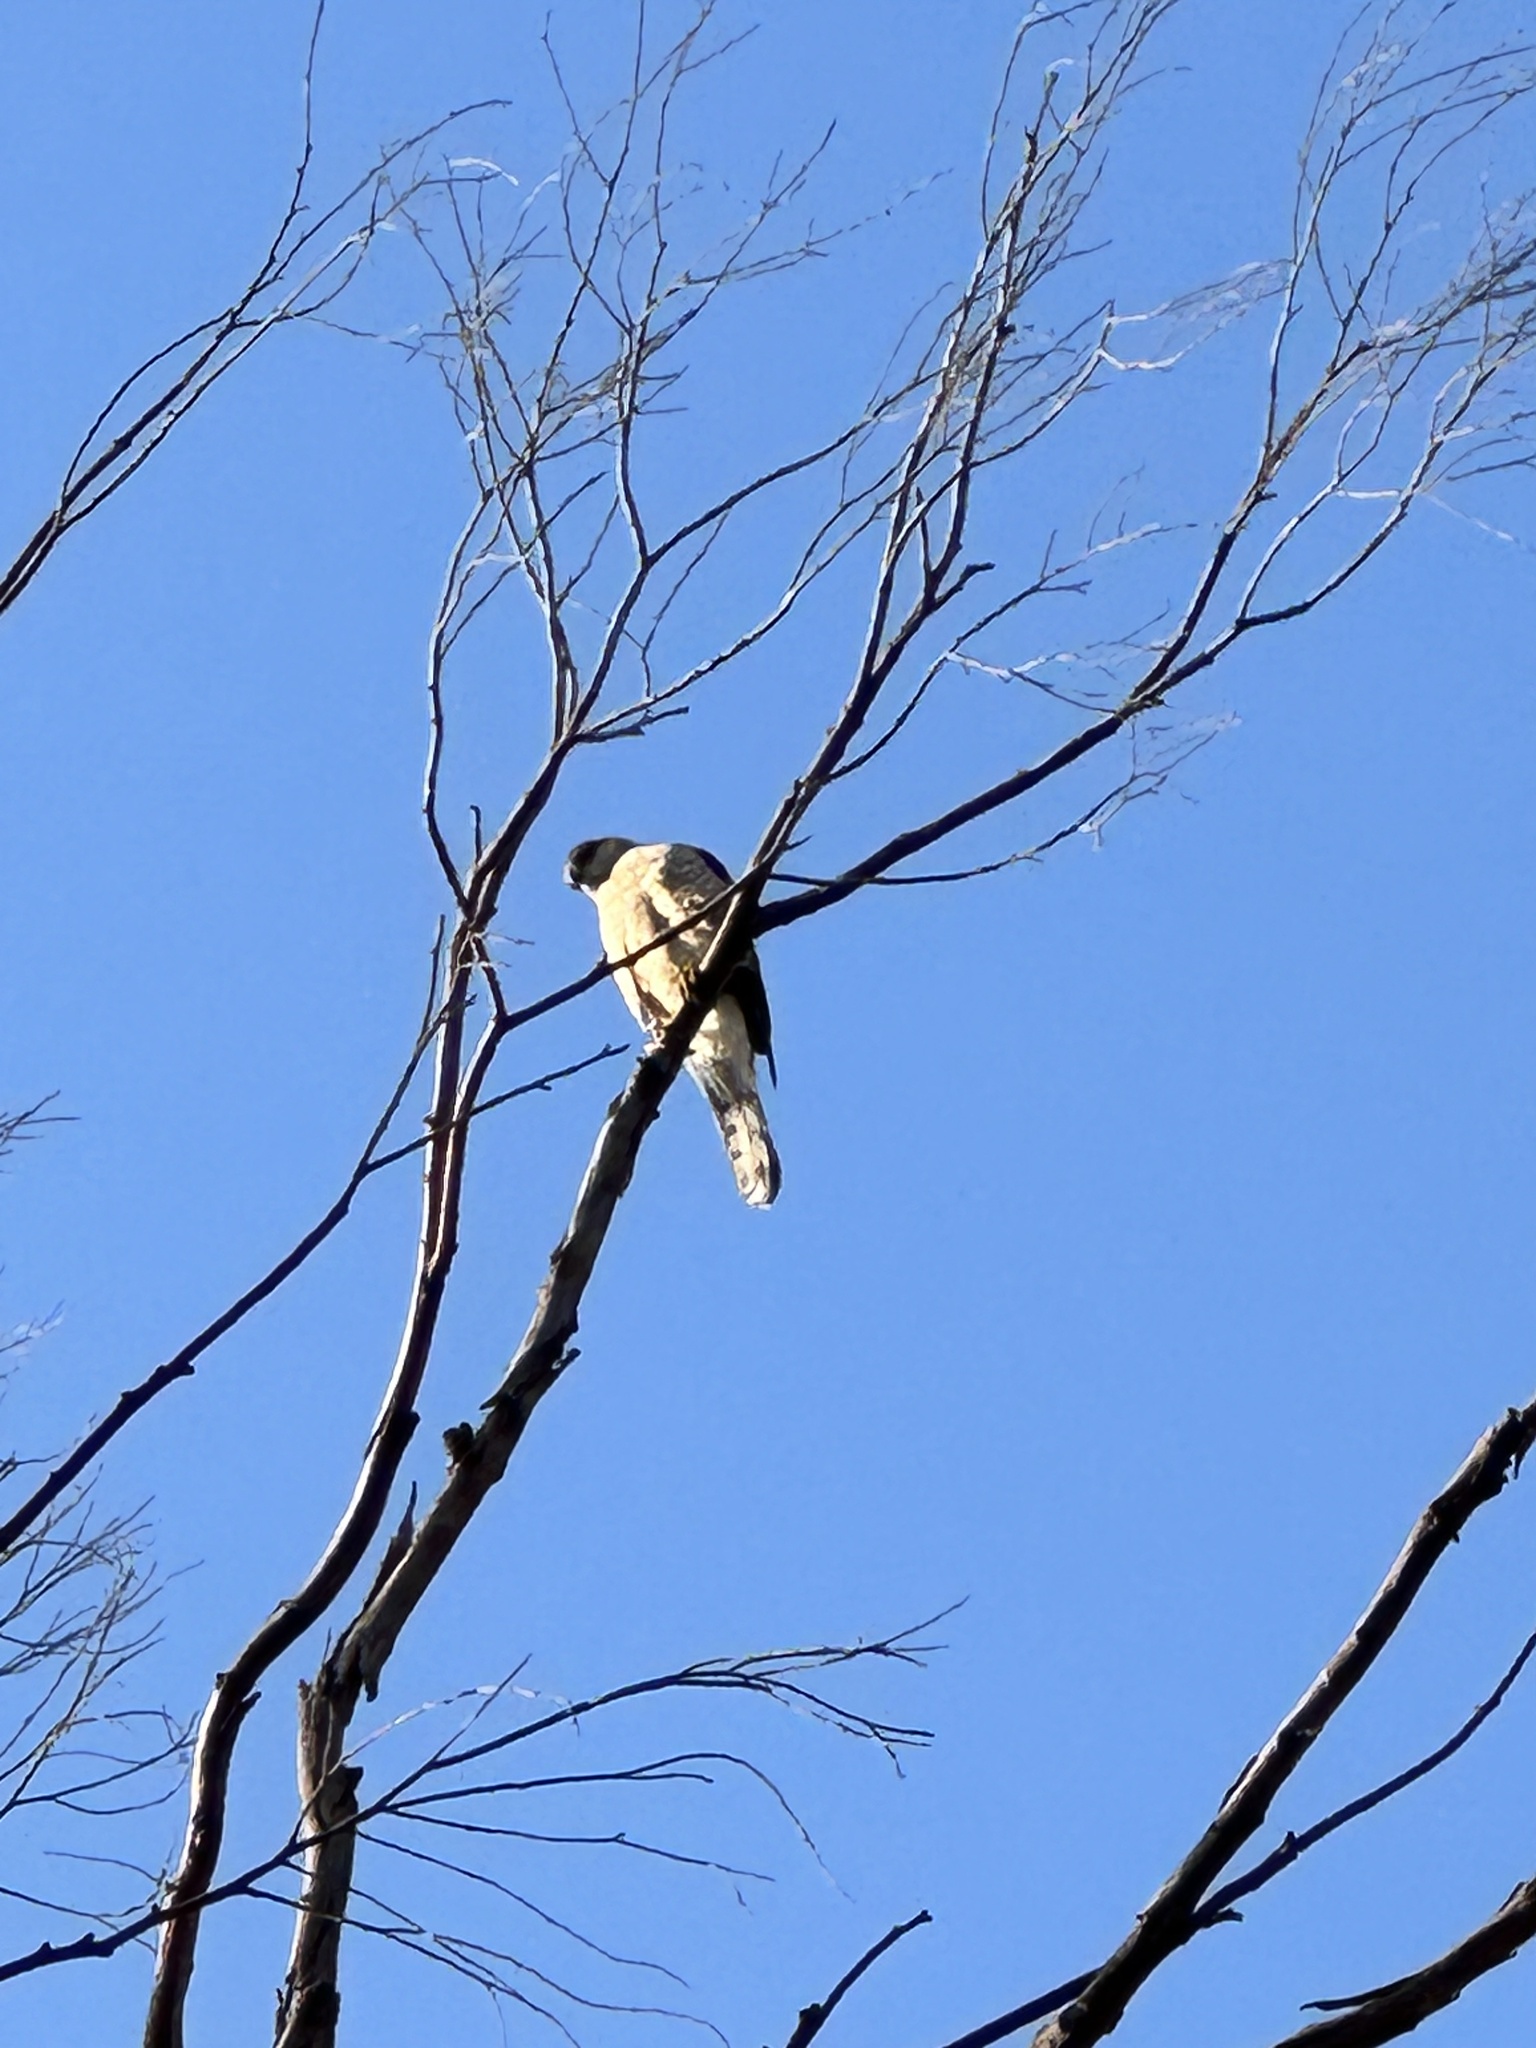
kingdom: Animalia
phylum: Chordata
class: Aves
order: Accipitriformes
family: Accipitridae
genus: Accipiter
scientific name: Accipiter cooperii
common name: Cooper's hawk
